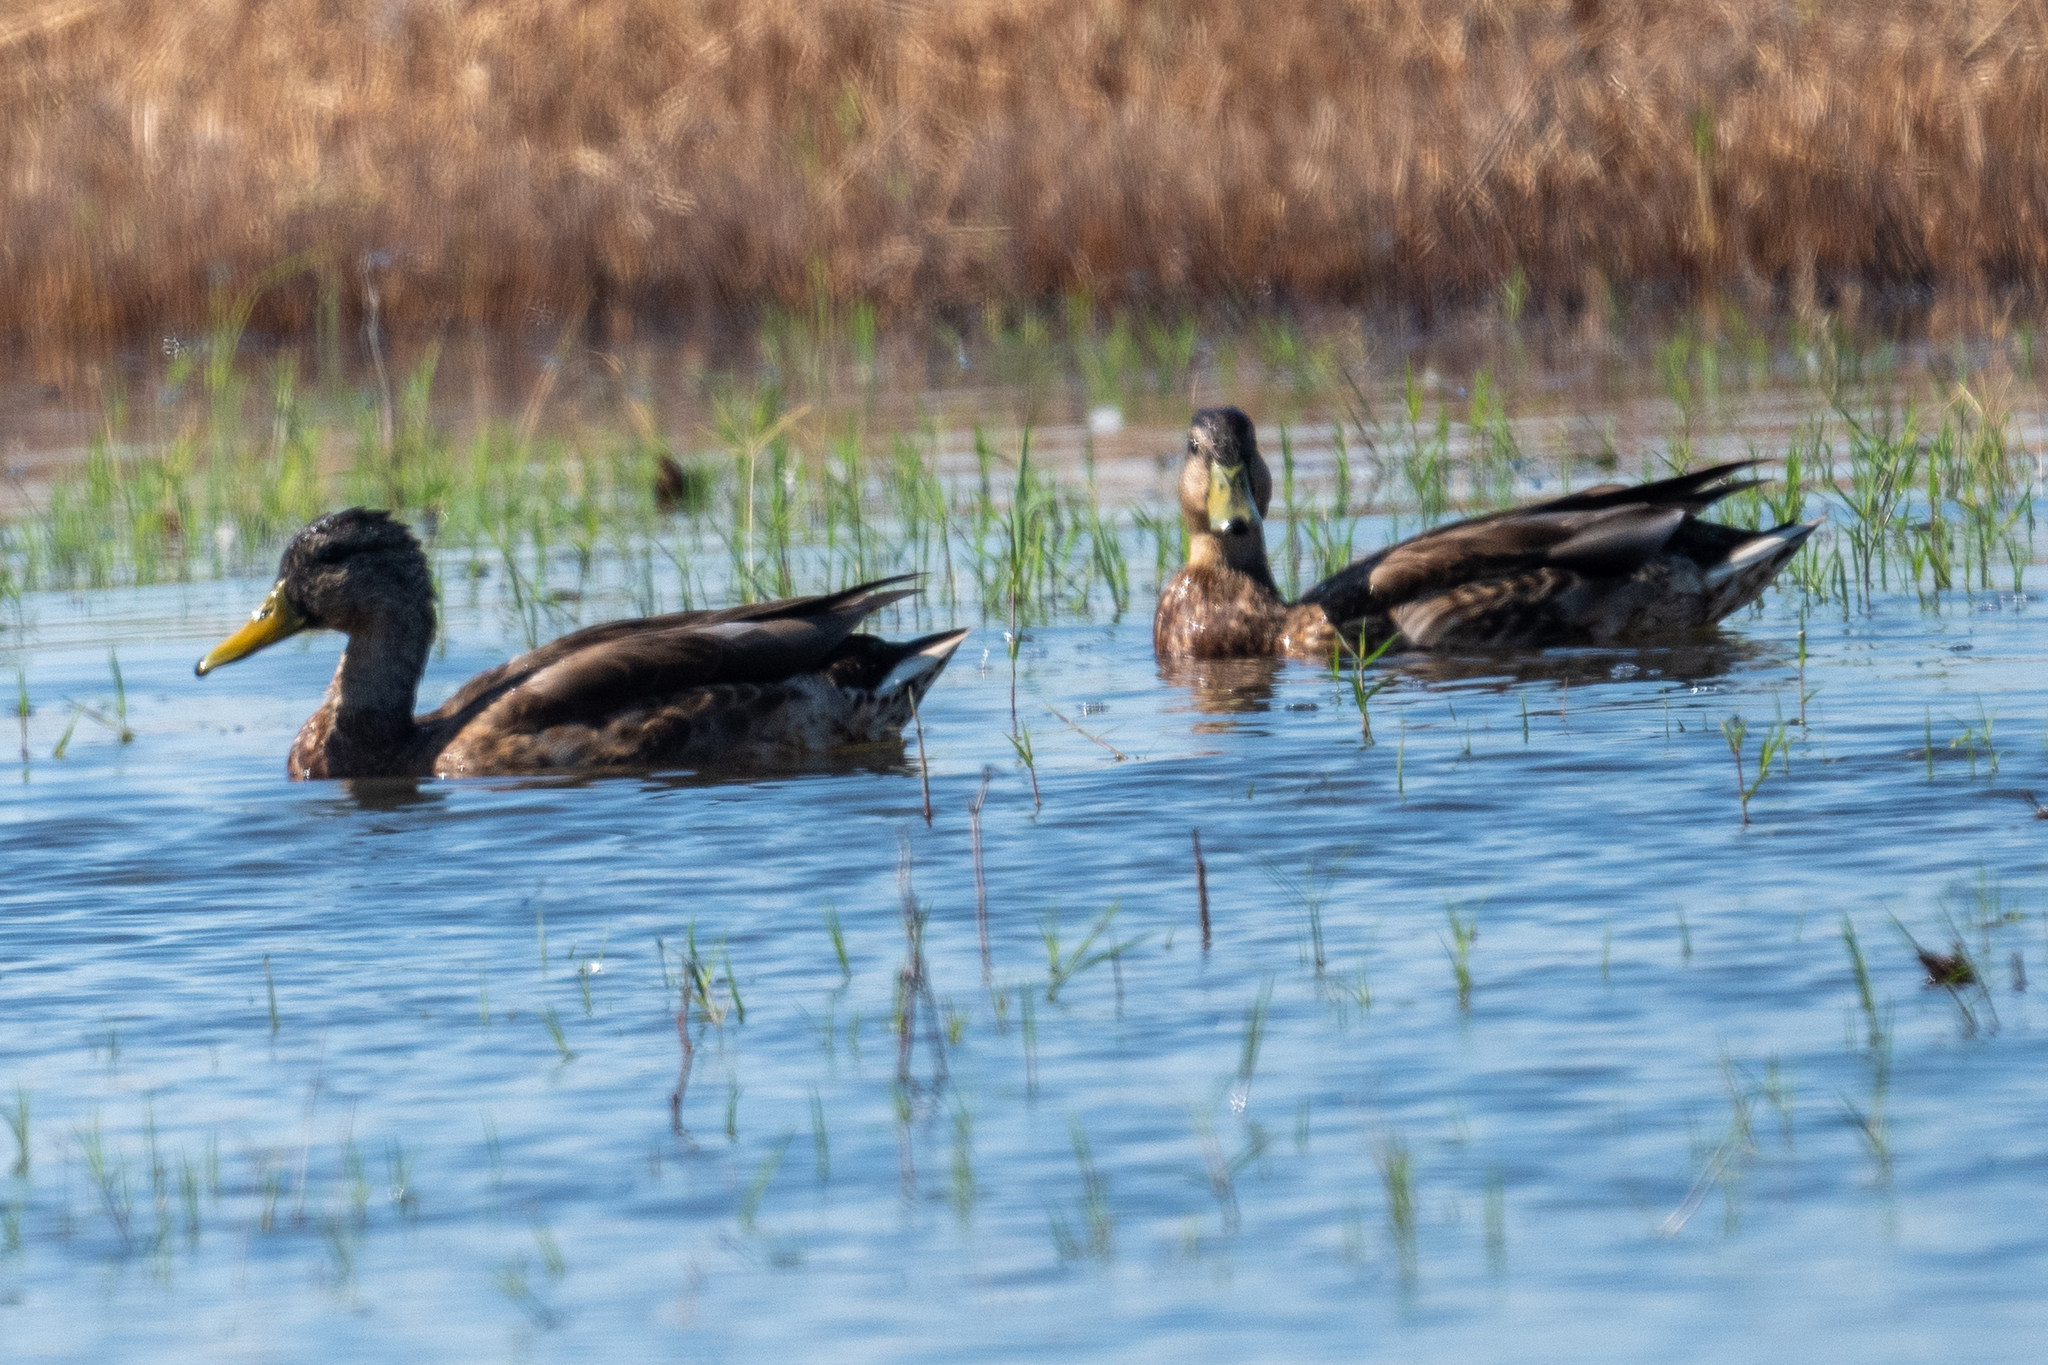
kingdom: Animalia
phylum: Chordata
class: Aves
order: Anseriformes
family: Anatidae
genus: Anas
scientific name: Anas platyrhynchos
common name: Mallard
